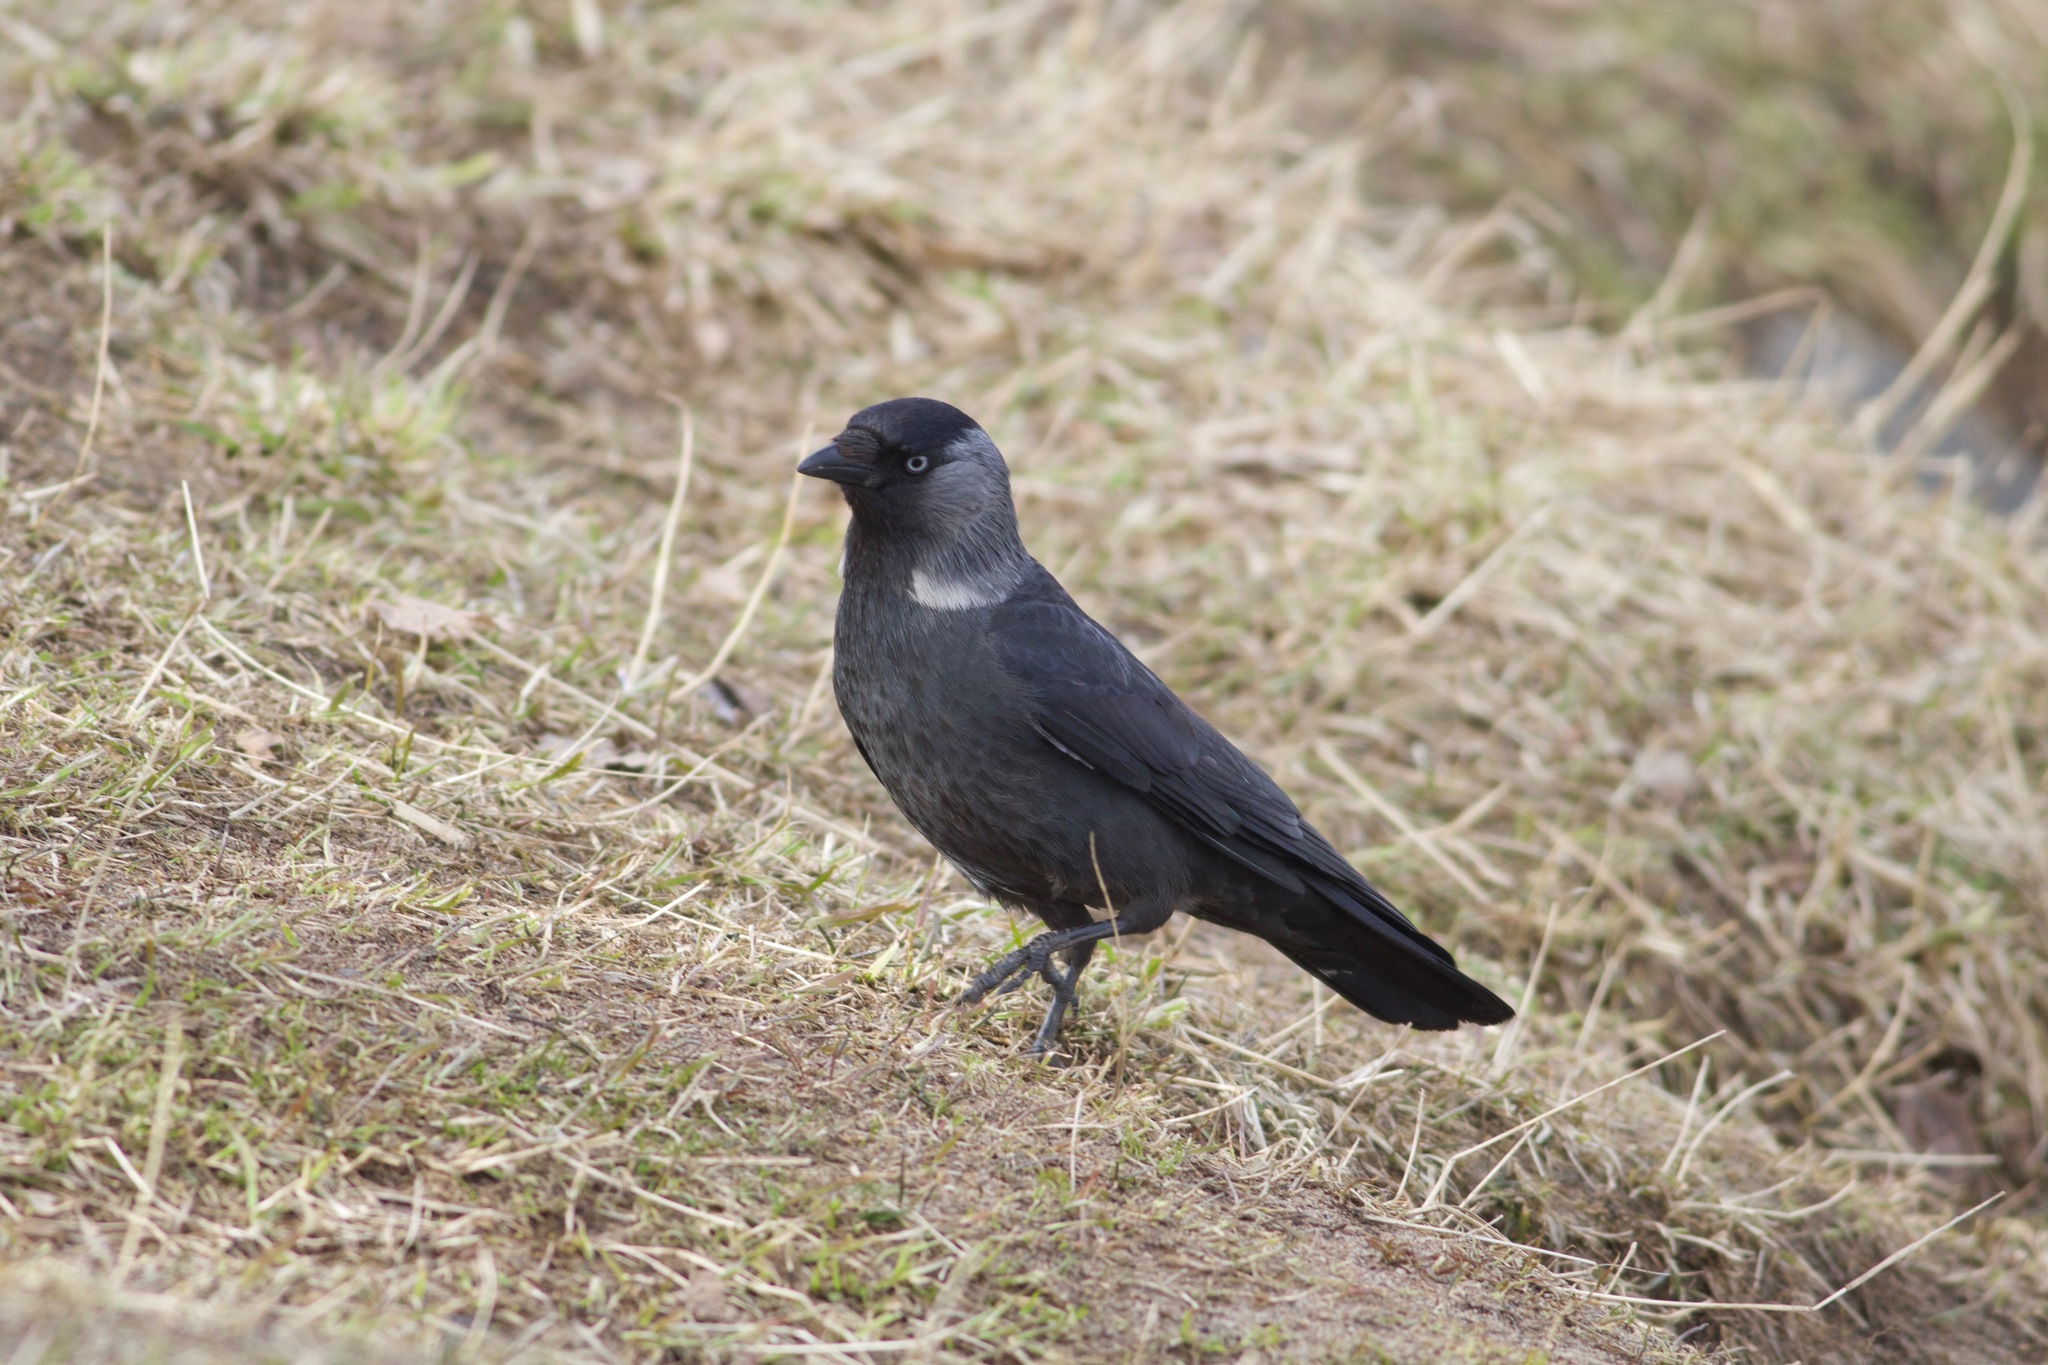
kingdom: Animalia
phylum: Chordata
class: Aves
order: Passeriformes
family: Corvidae
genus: Coloeus
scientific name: Coloeus monedula
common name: Western jackdaw
